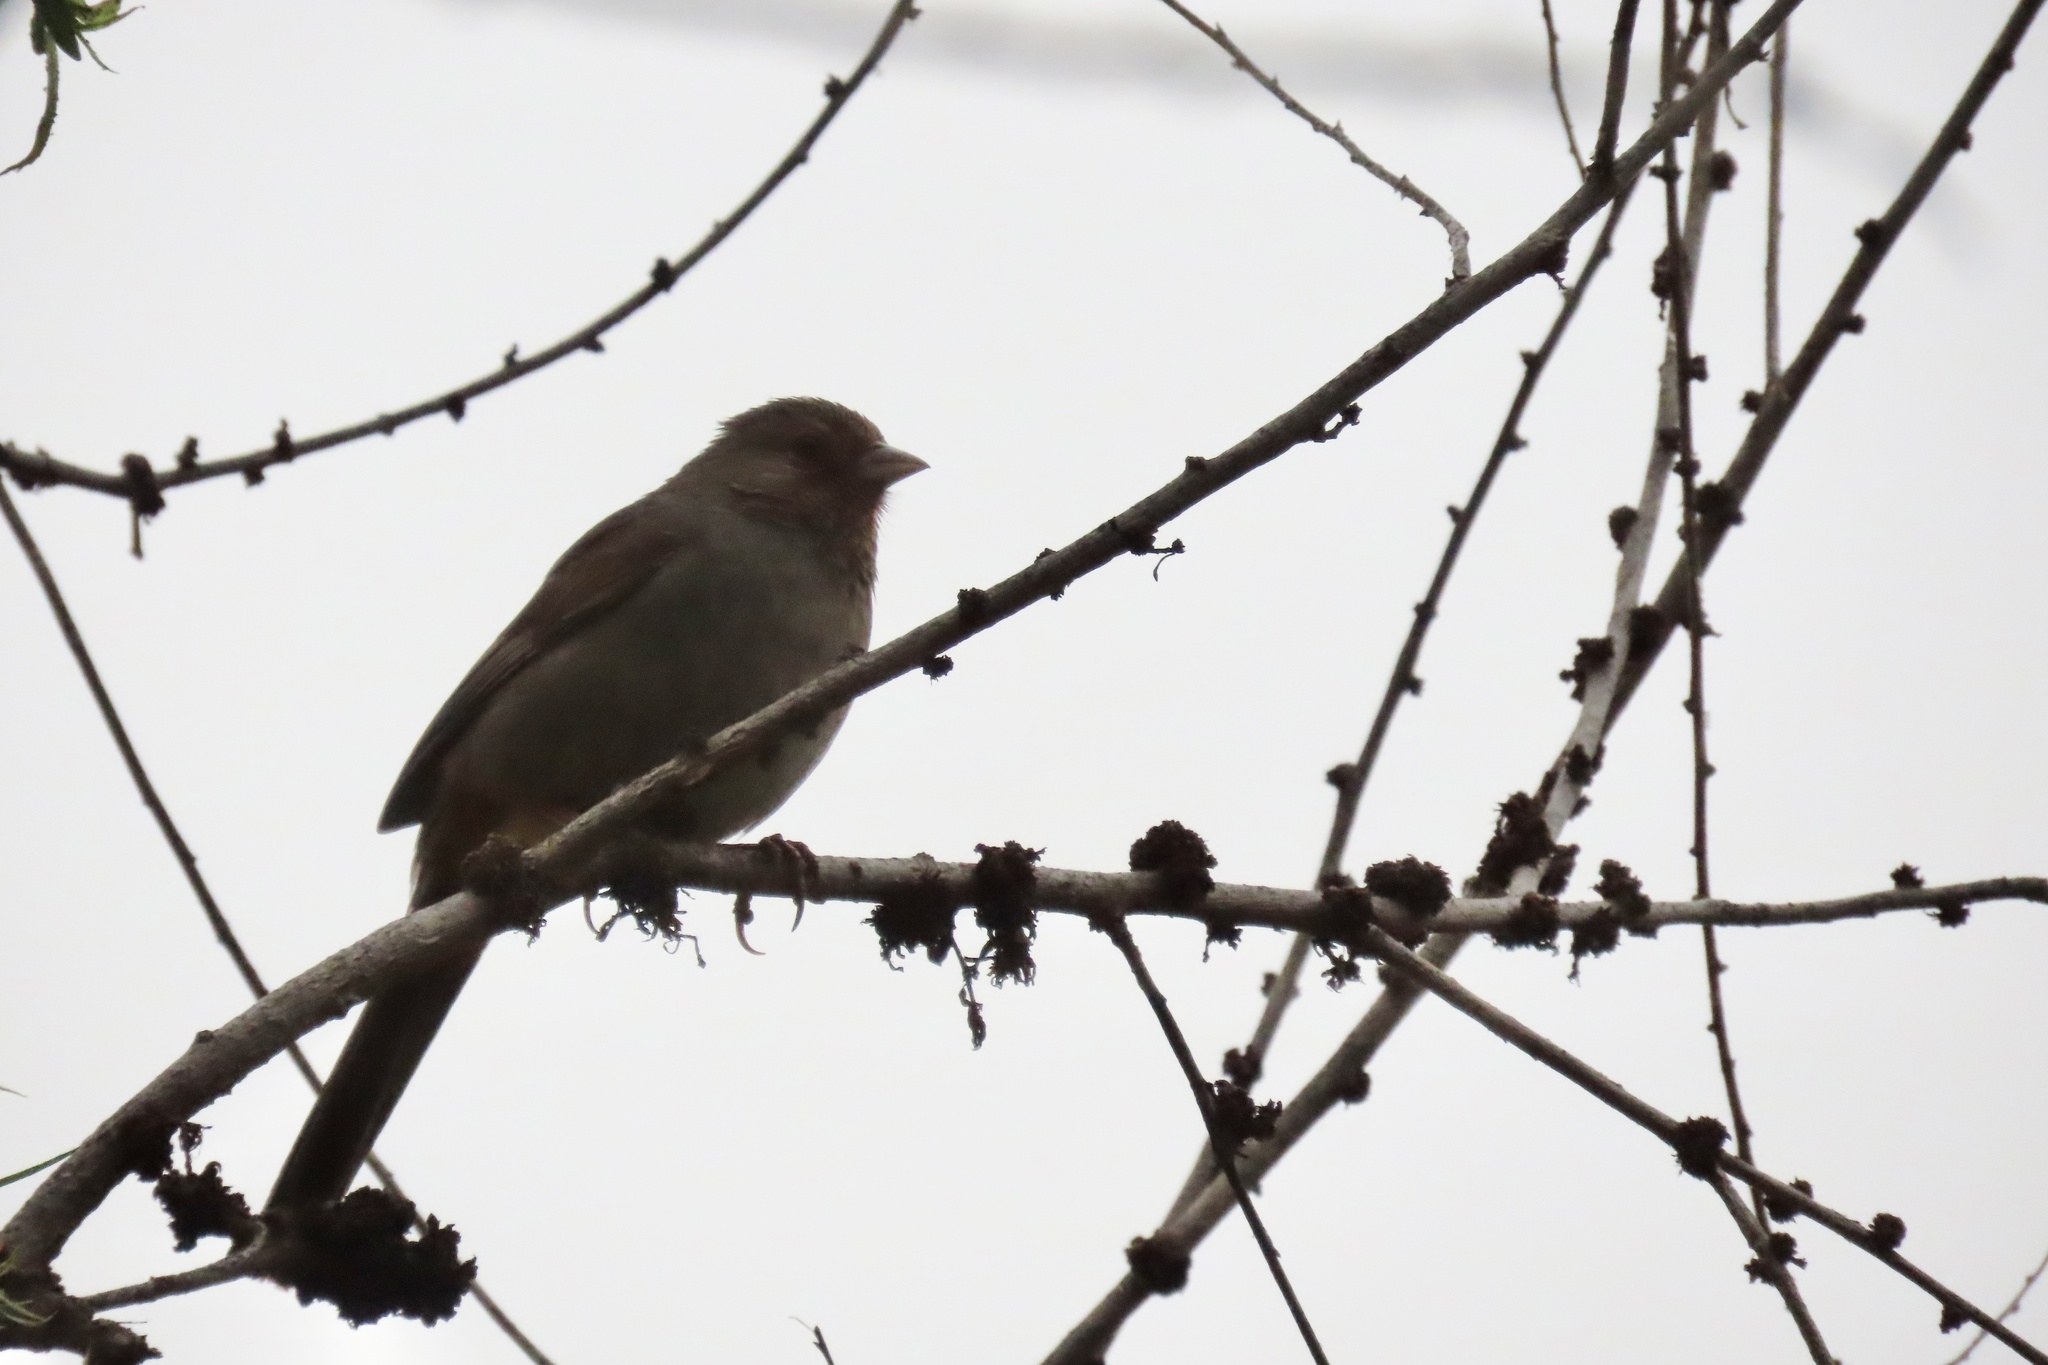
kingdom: Animalia
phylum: Chordata
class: Aves
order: Passeriformes
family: Passerellidae
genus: Melozone
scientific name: Melozone crissalis
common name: California towhee
